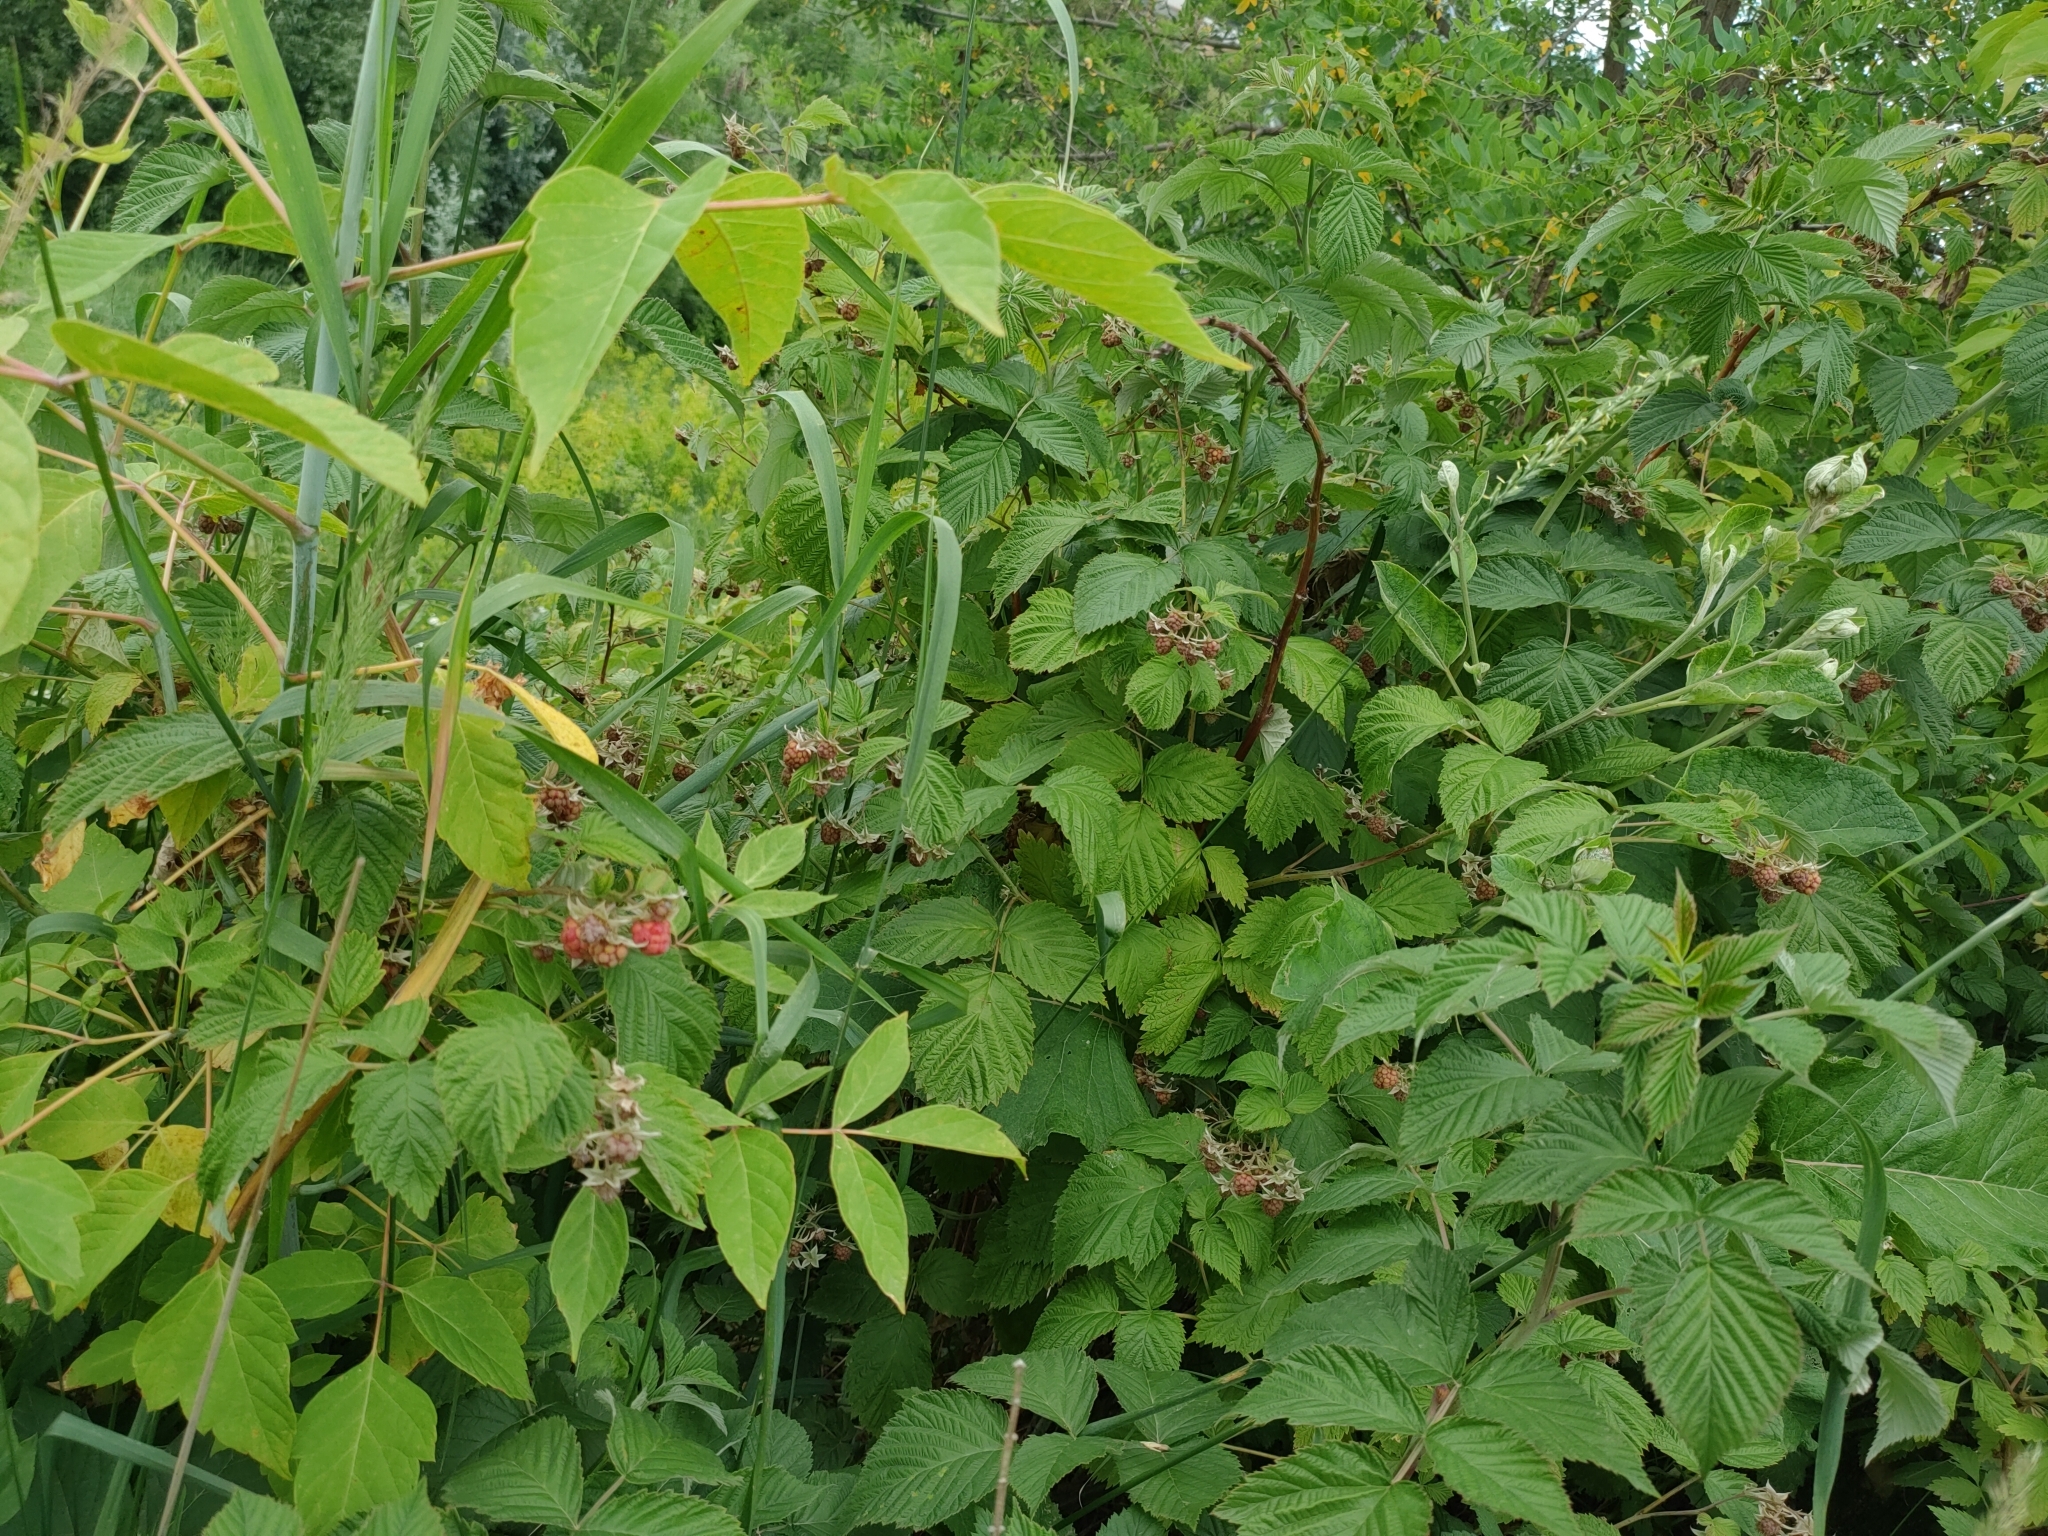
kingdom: Plantae
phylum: Tracheophyta
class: Magnoliopsida
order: Rosales
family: Rosaceae
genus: Rubus
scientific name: Rubus idaeus
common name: Raspberry
